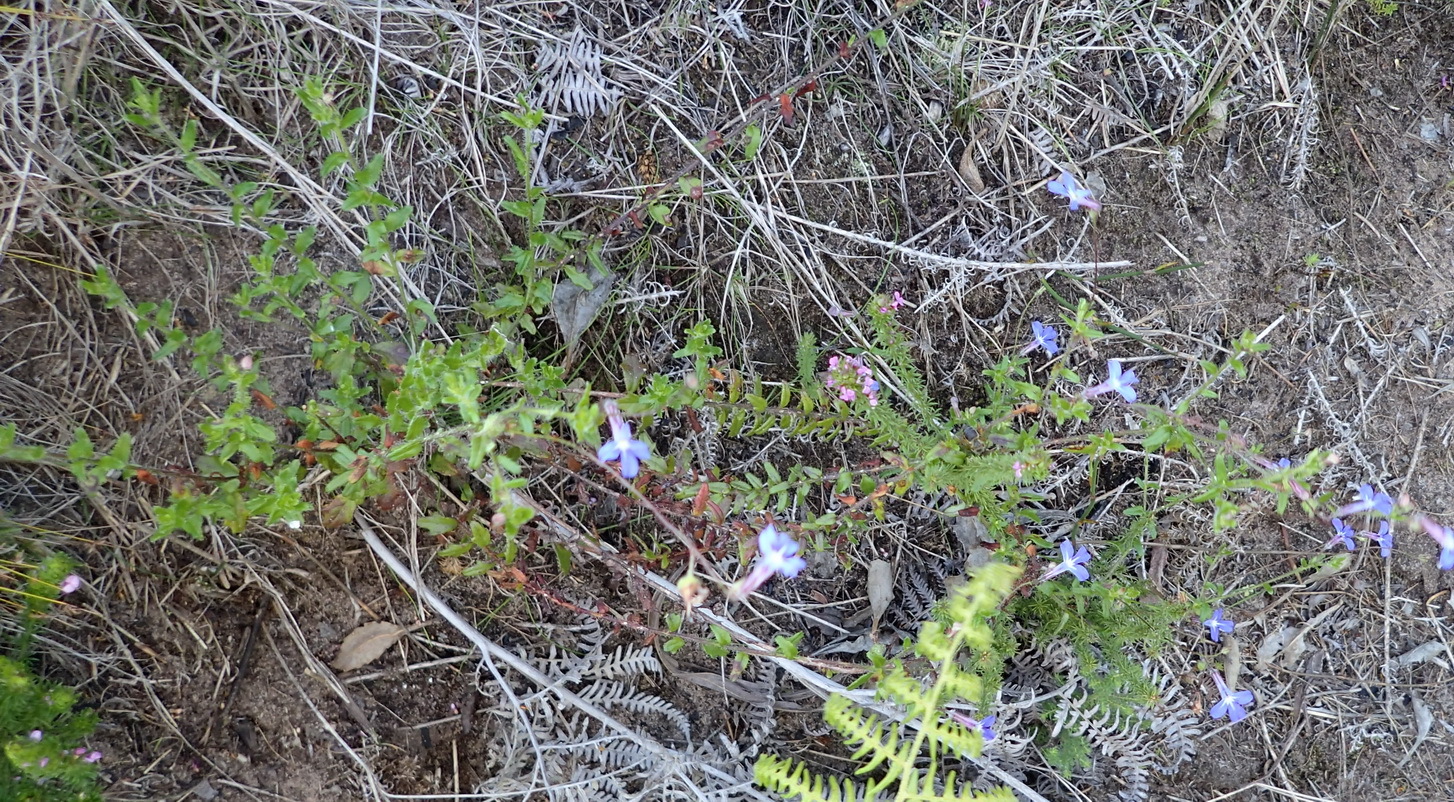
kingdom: Plantae
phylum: Tracheophyta
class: Magnoliopsida
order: Asterales
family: Campanulaceae
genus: Lobelia
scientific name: Lobelia neglecta
